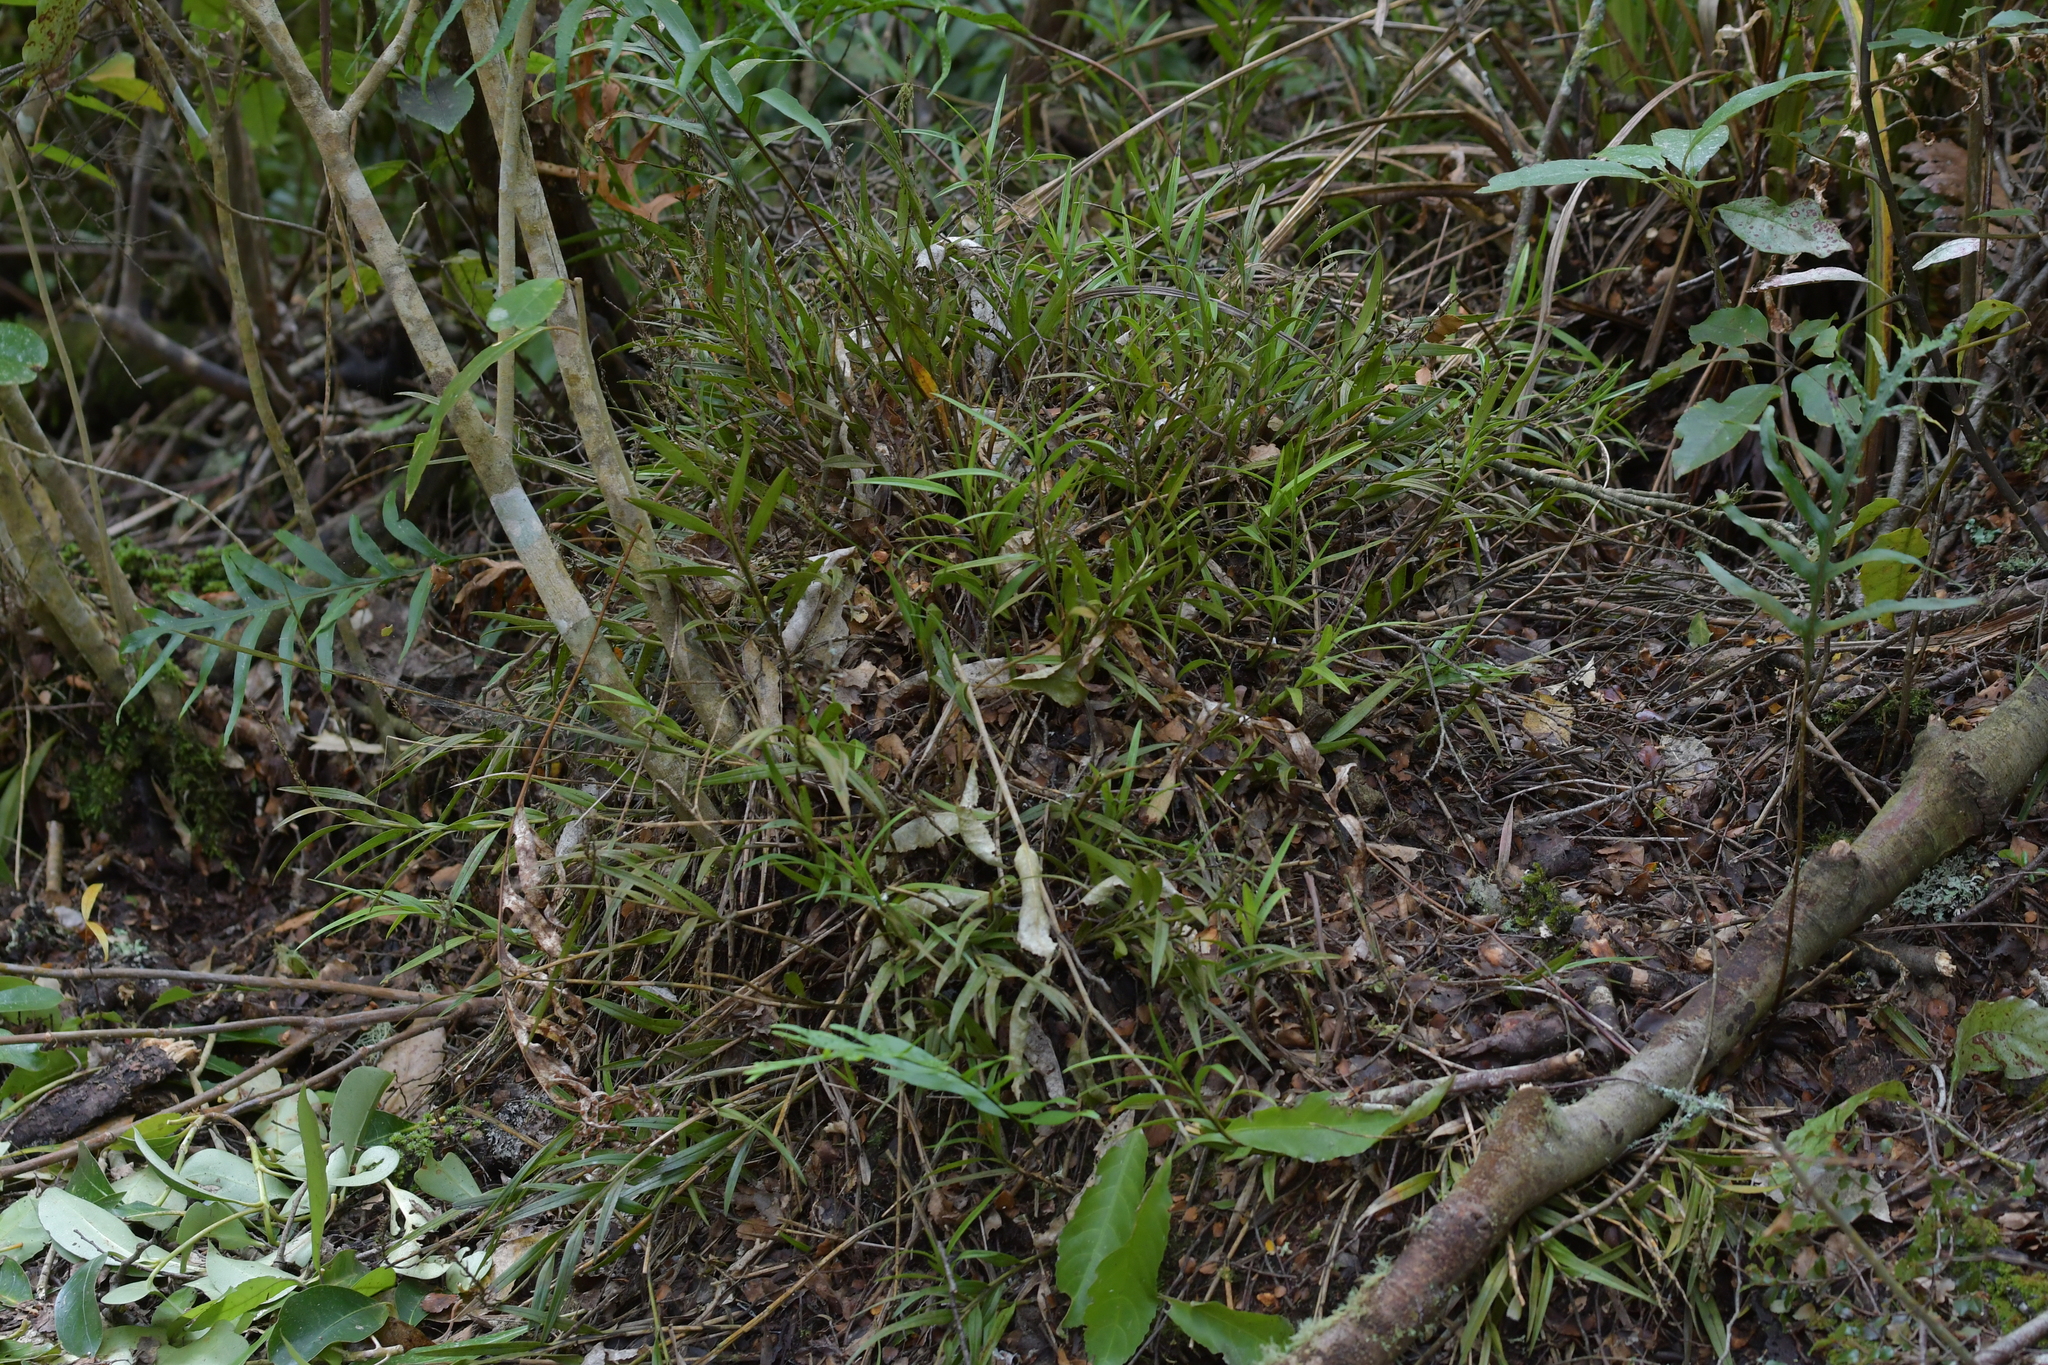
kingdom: Plantae
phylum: Tracheophyta
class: Liliopsida
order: Asparagales
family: Orchidaceae
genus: Earina
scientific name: Earina autumnalis
